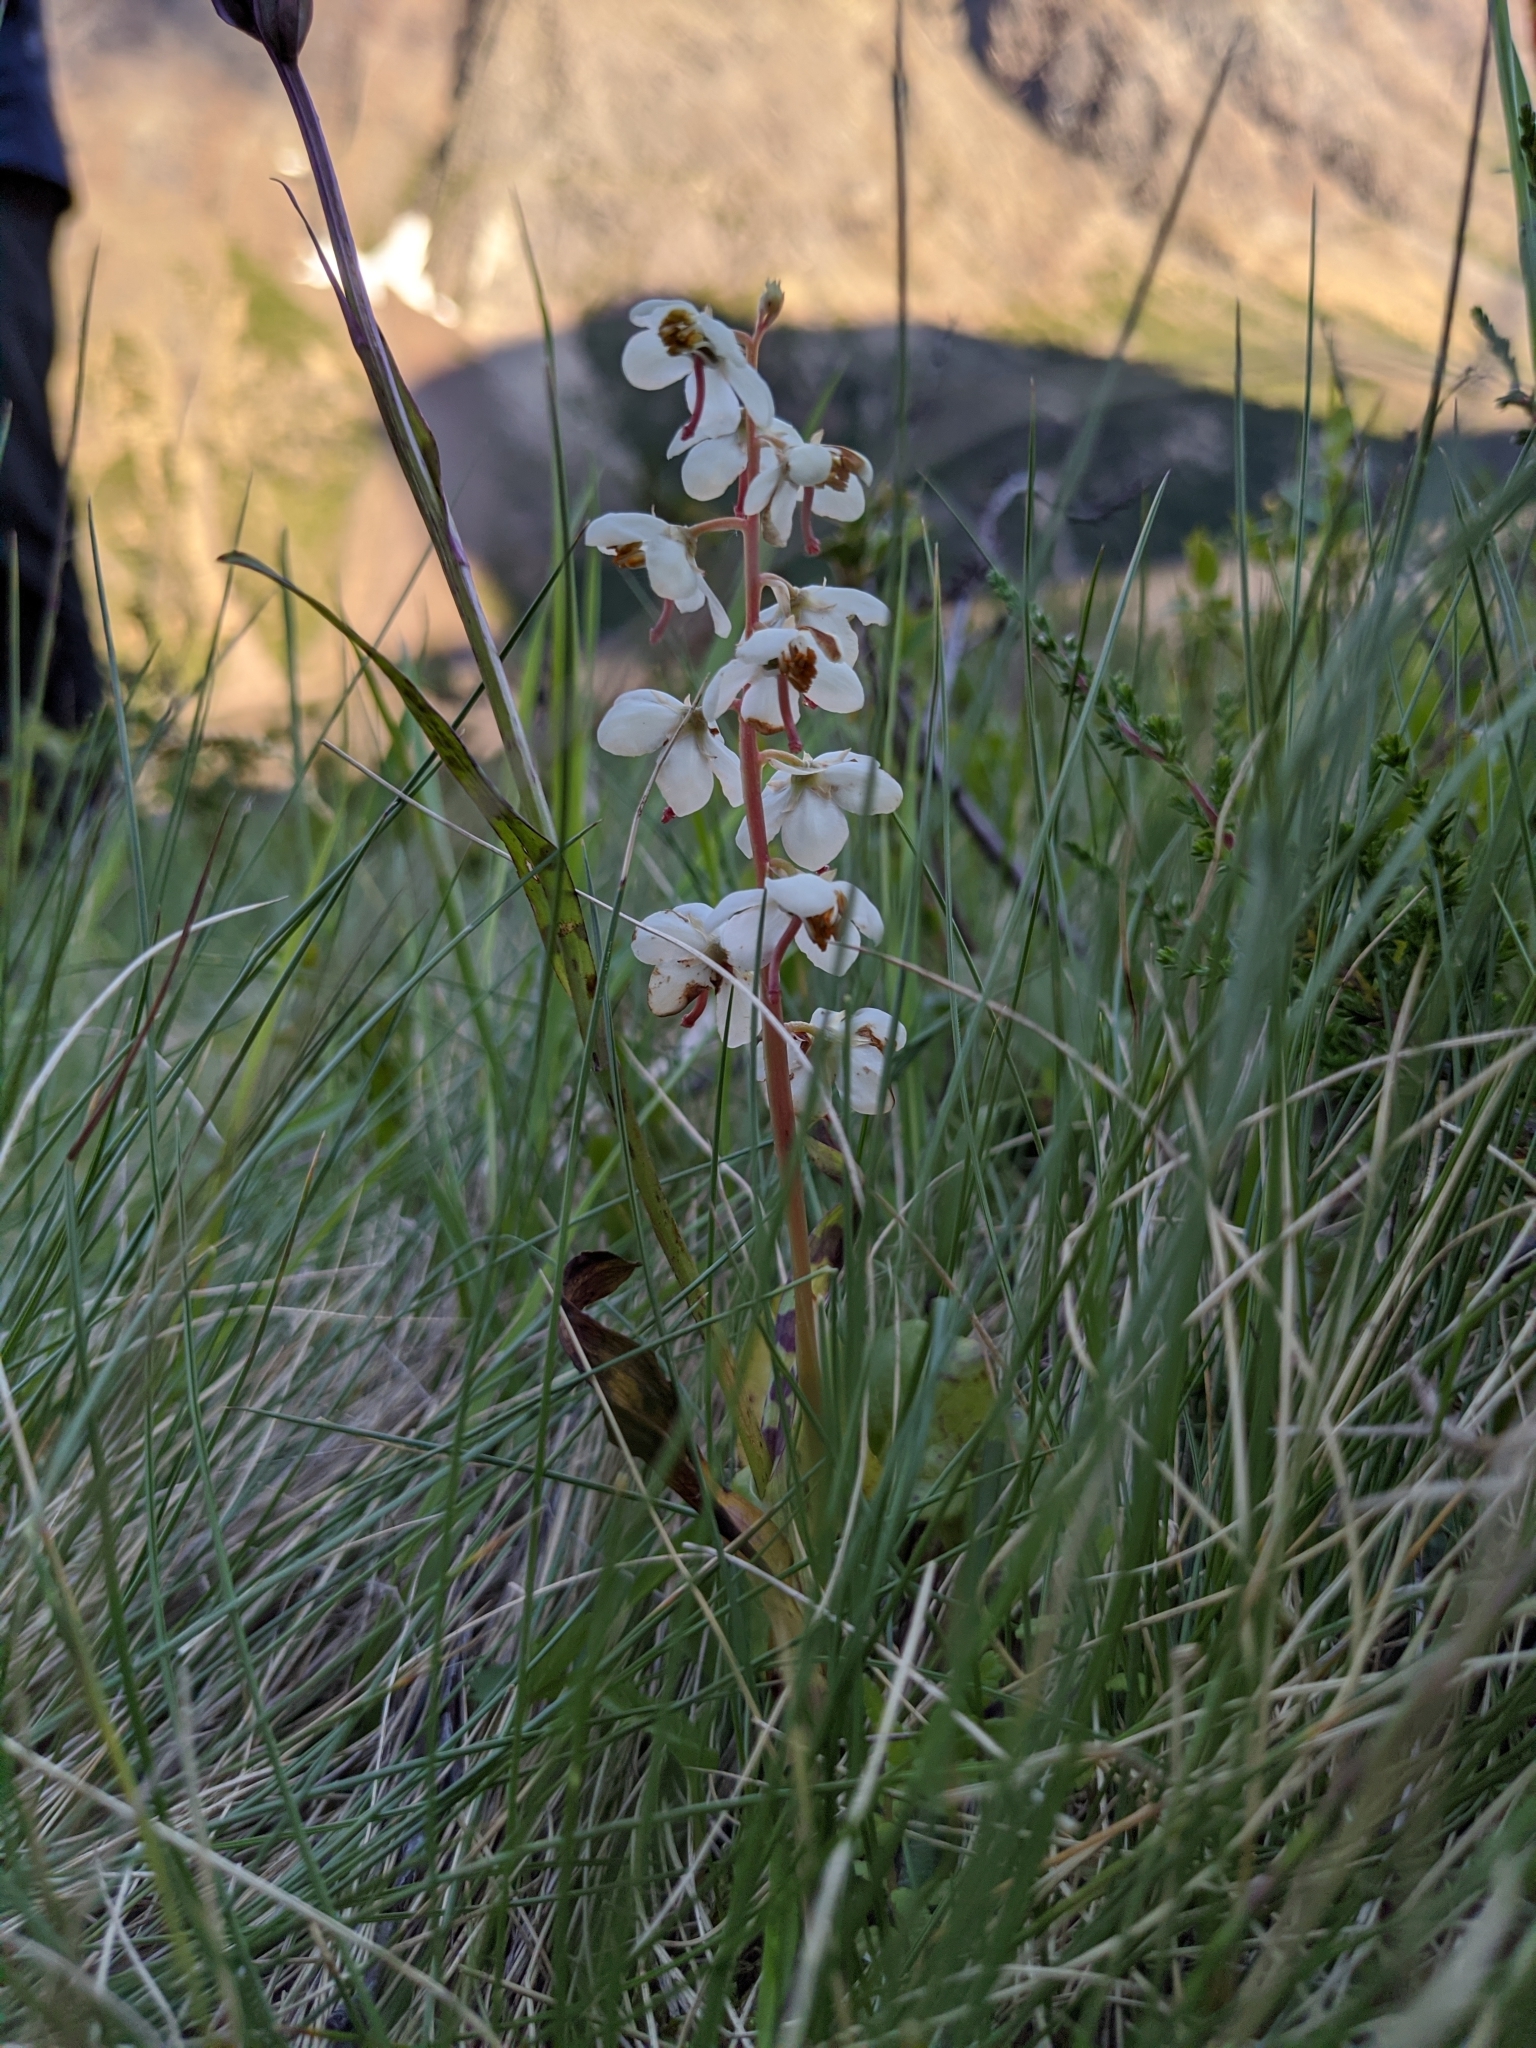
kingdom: Plantae
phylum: Tracheophyta
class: Magnoliopsida
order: Ericales
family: Ericaceae
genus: Pyrola
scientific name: Pyrola rotundifolia
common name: Round-leaved wintergreen
